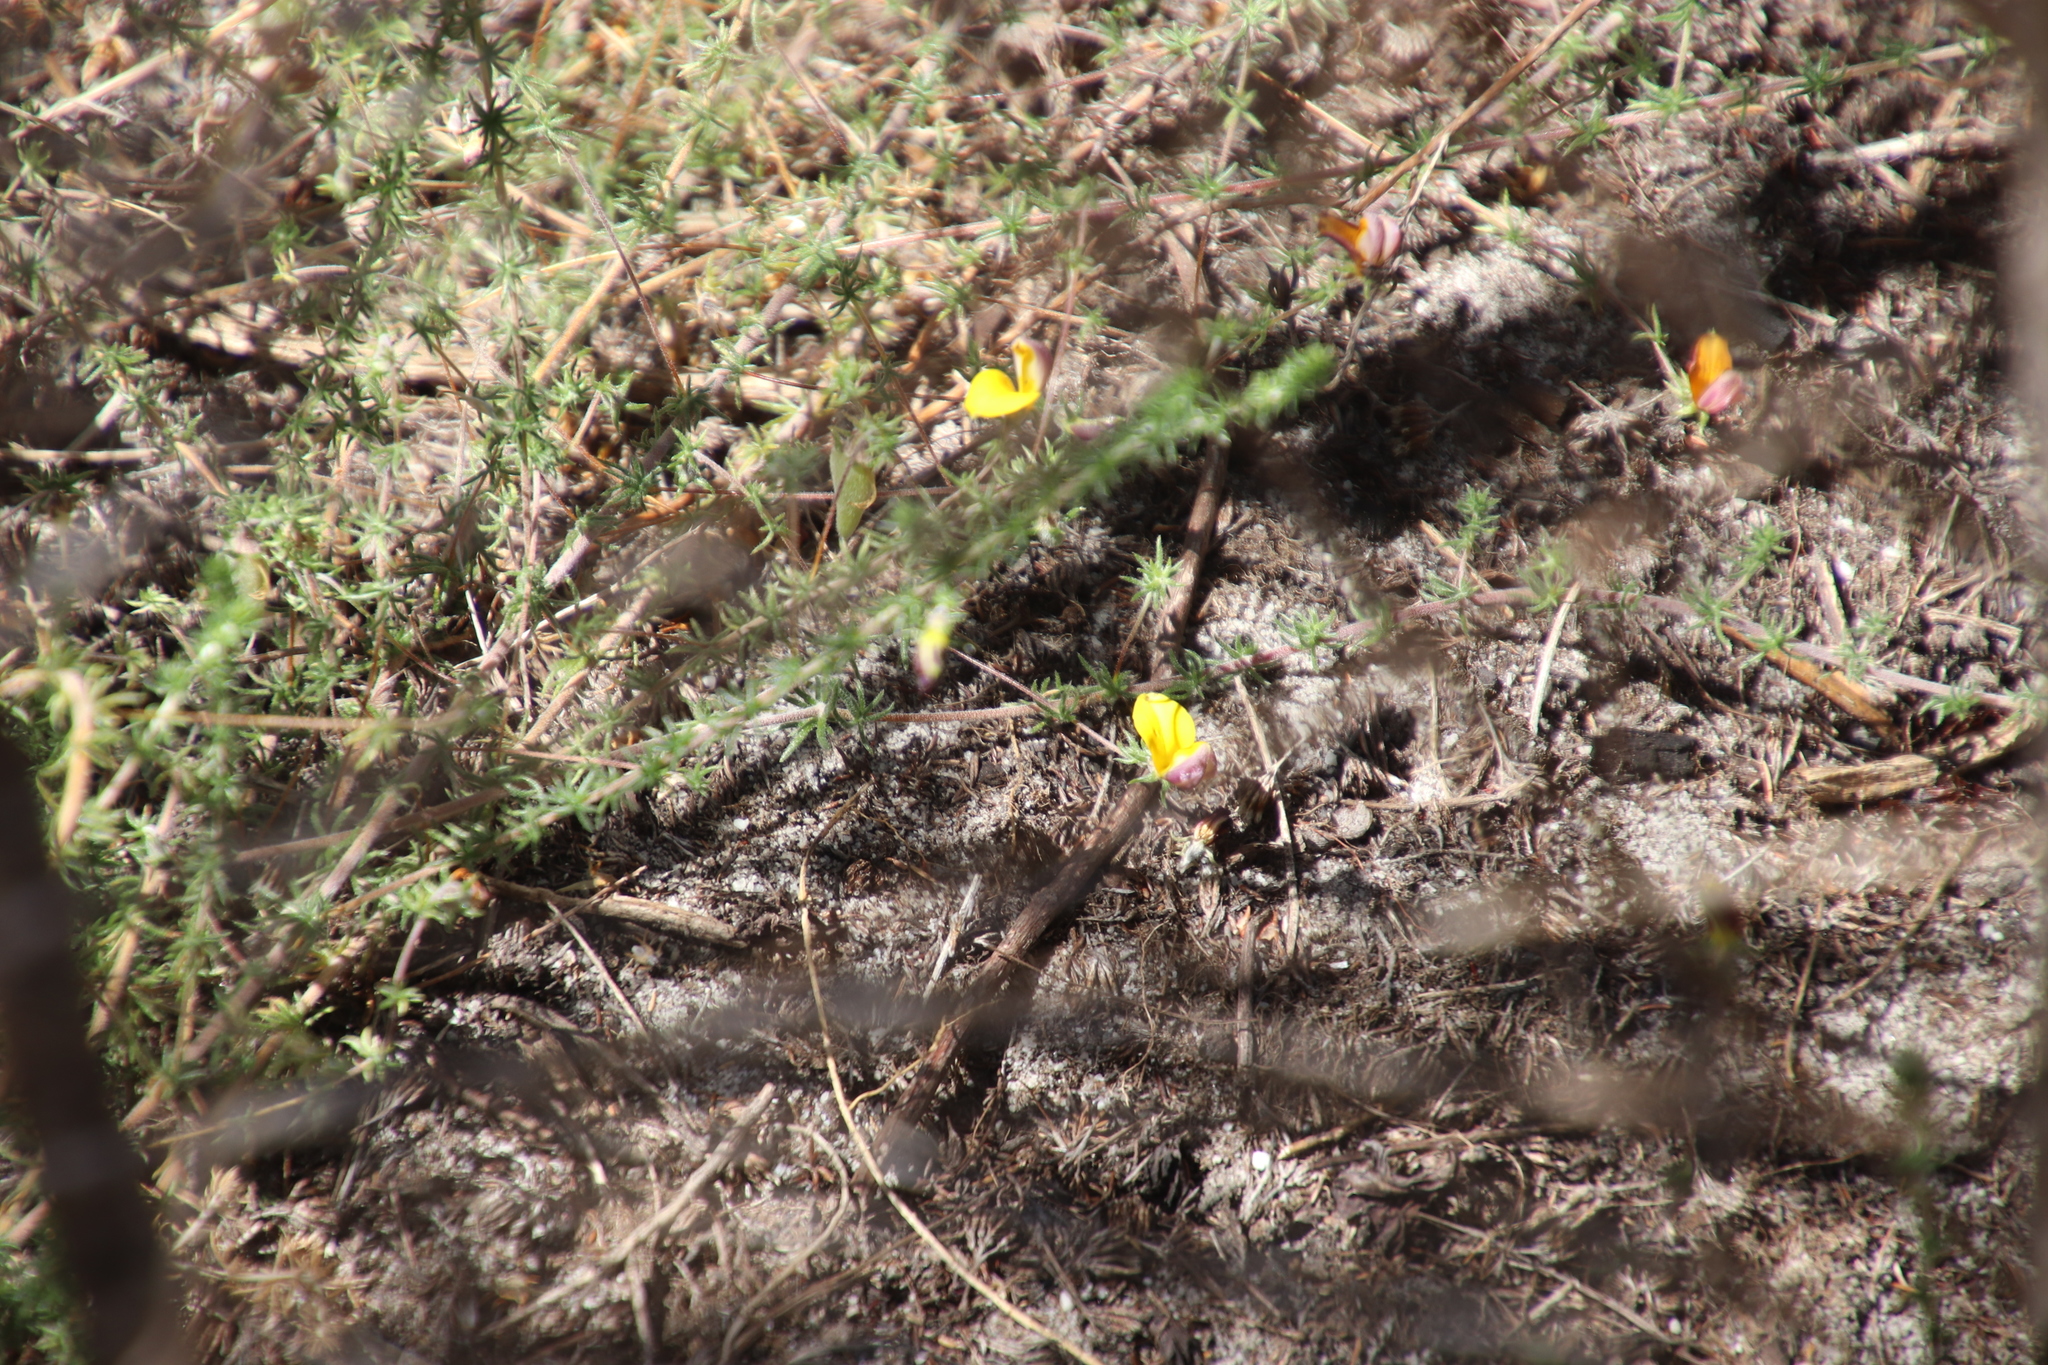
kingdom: Plantae
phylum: Tracheophyta
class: Magnoliopsida
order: Fabales
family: Fabaceae
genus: Aspalathus
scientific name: Aspalathus retroflexa
